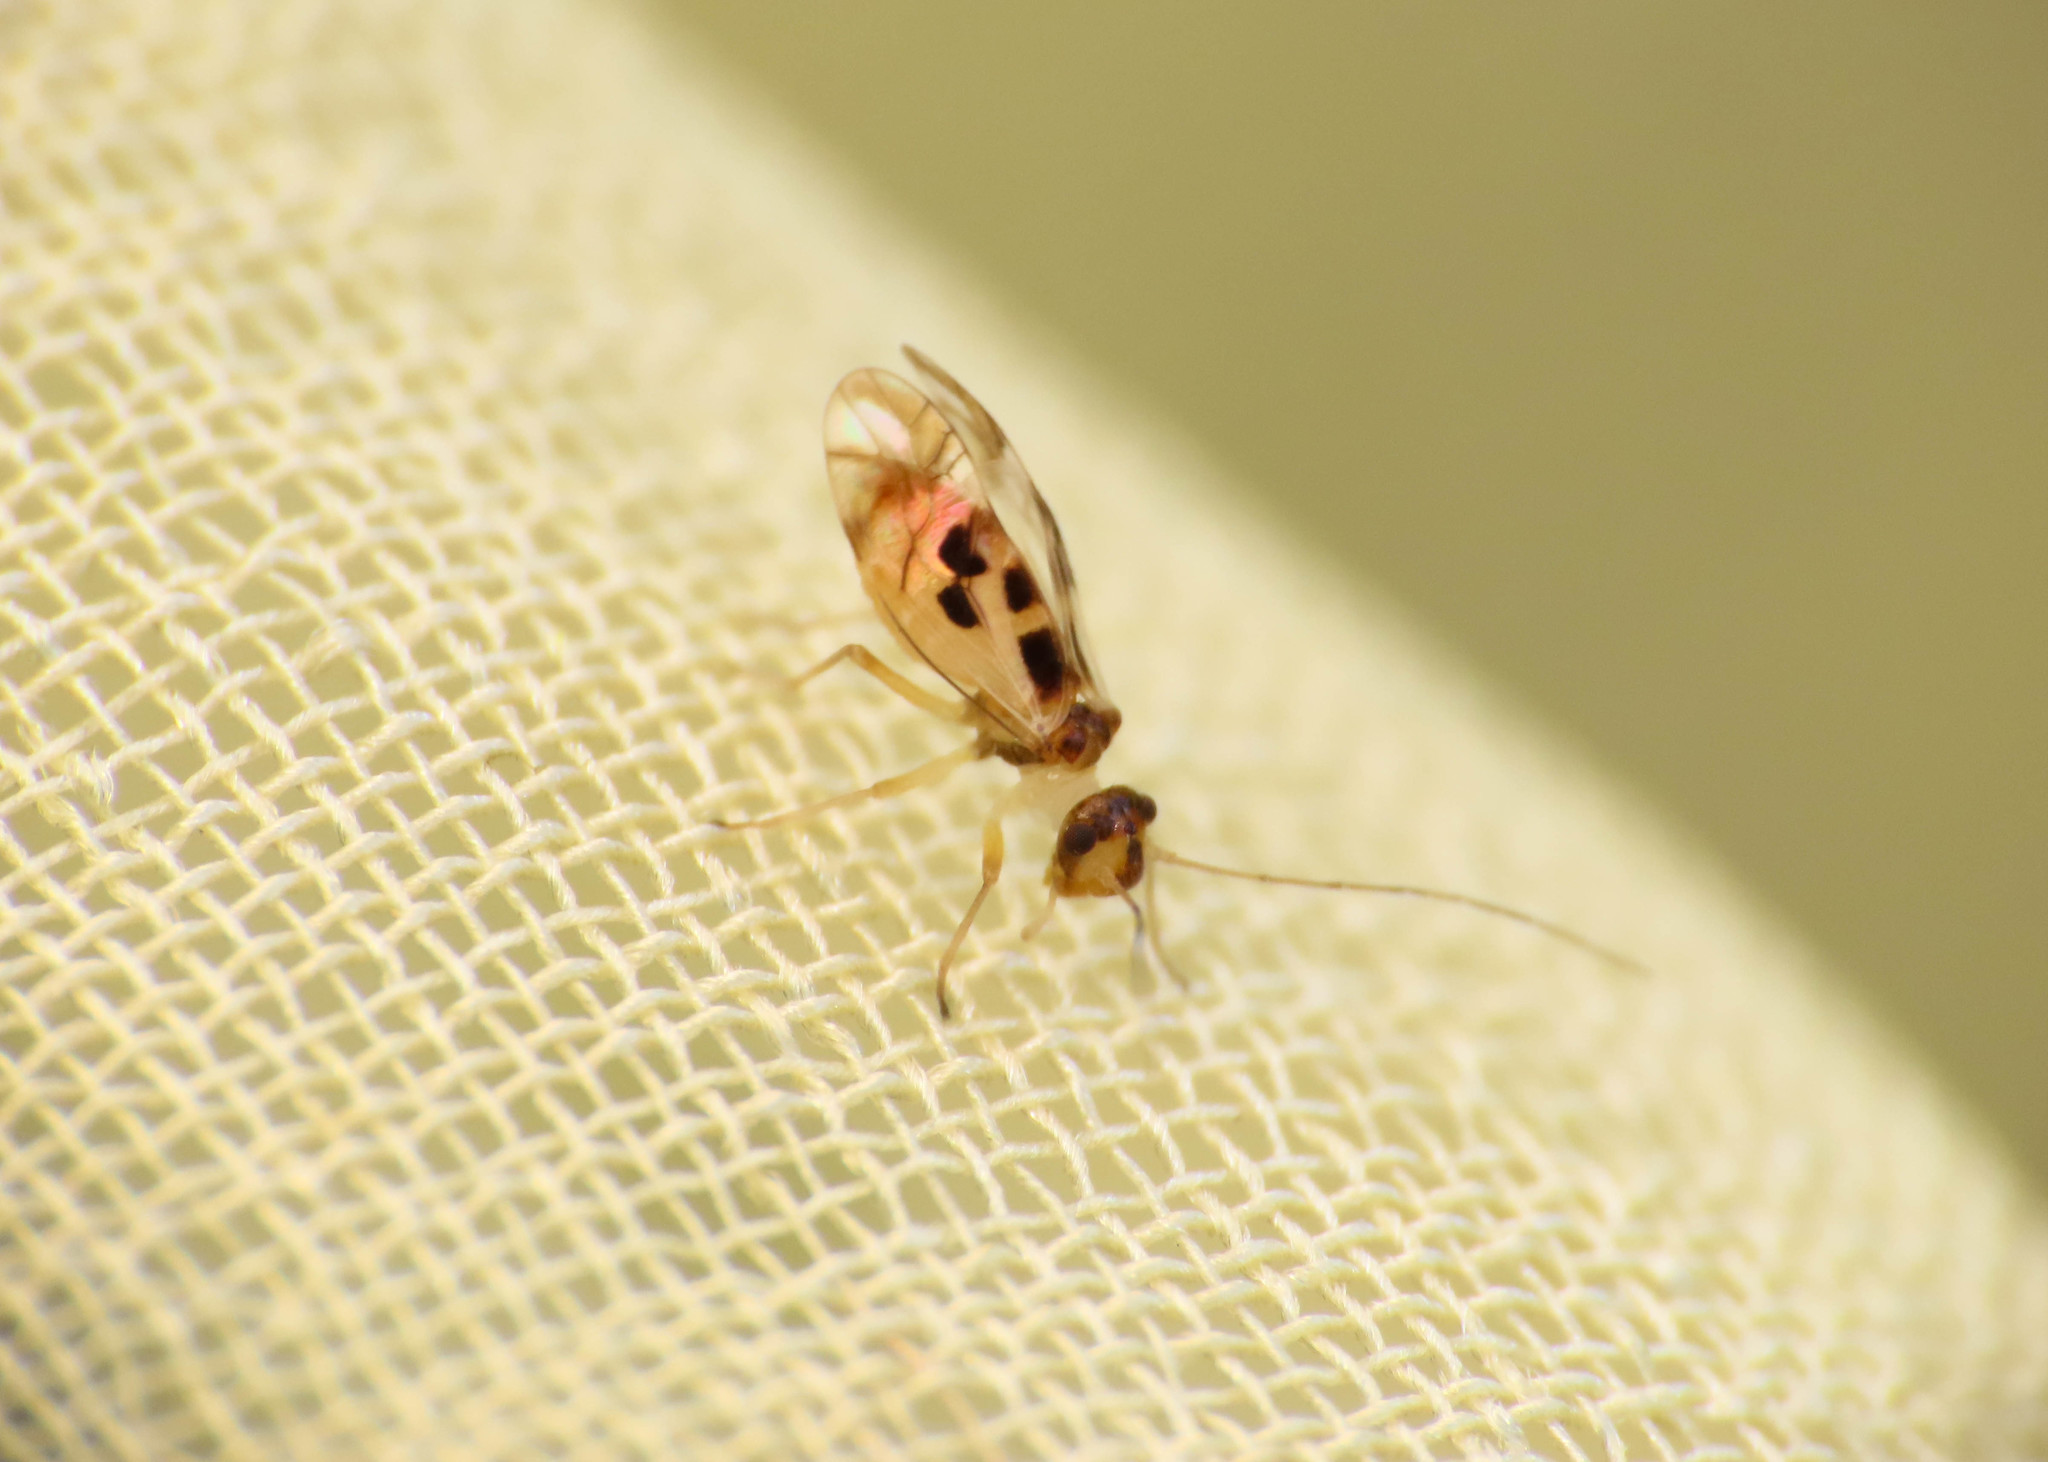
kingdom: Animalia
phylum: Arthropoda
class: Insecta
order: Psocodea
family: Stenopsocidae
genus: Graphopsocus
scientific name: Graphopsocus cruciatus
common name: Lizard bark louse
